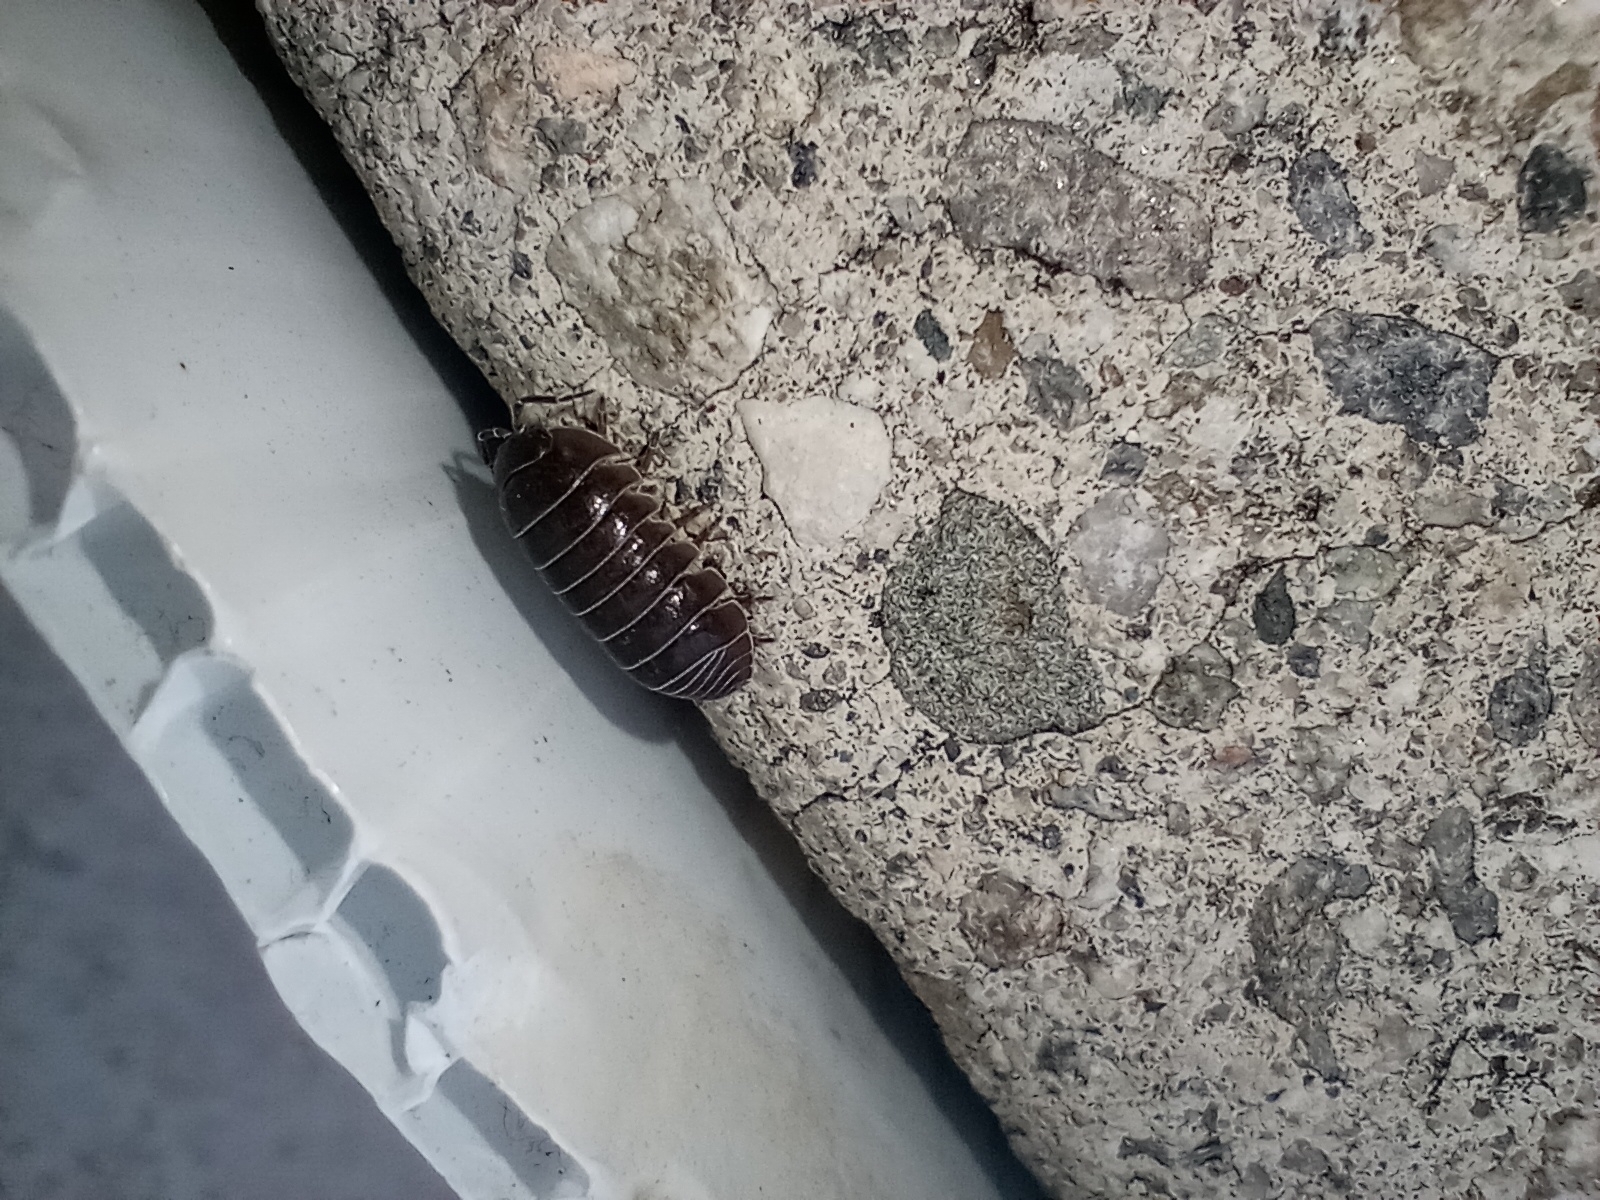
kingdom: Animalia
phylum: Arthropoda
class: Malacostraca
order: Isopoda
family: Armadillidiidae
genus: Armadillidium
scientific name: Armadillidium vulgare
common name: Common pill woodlouse
